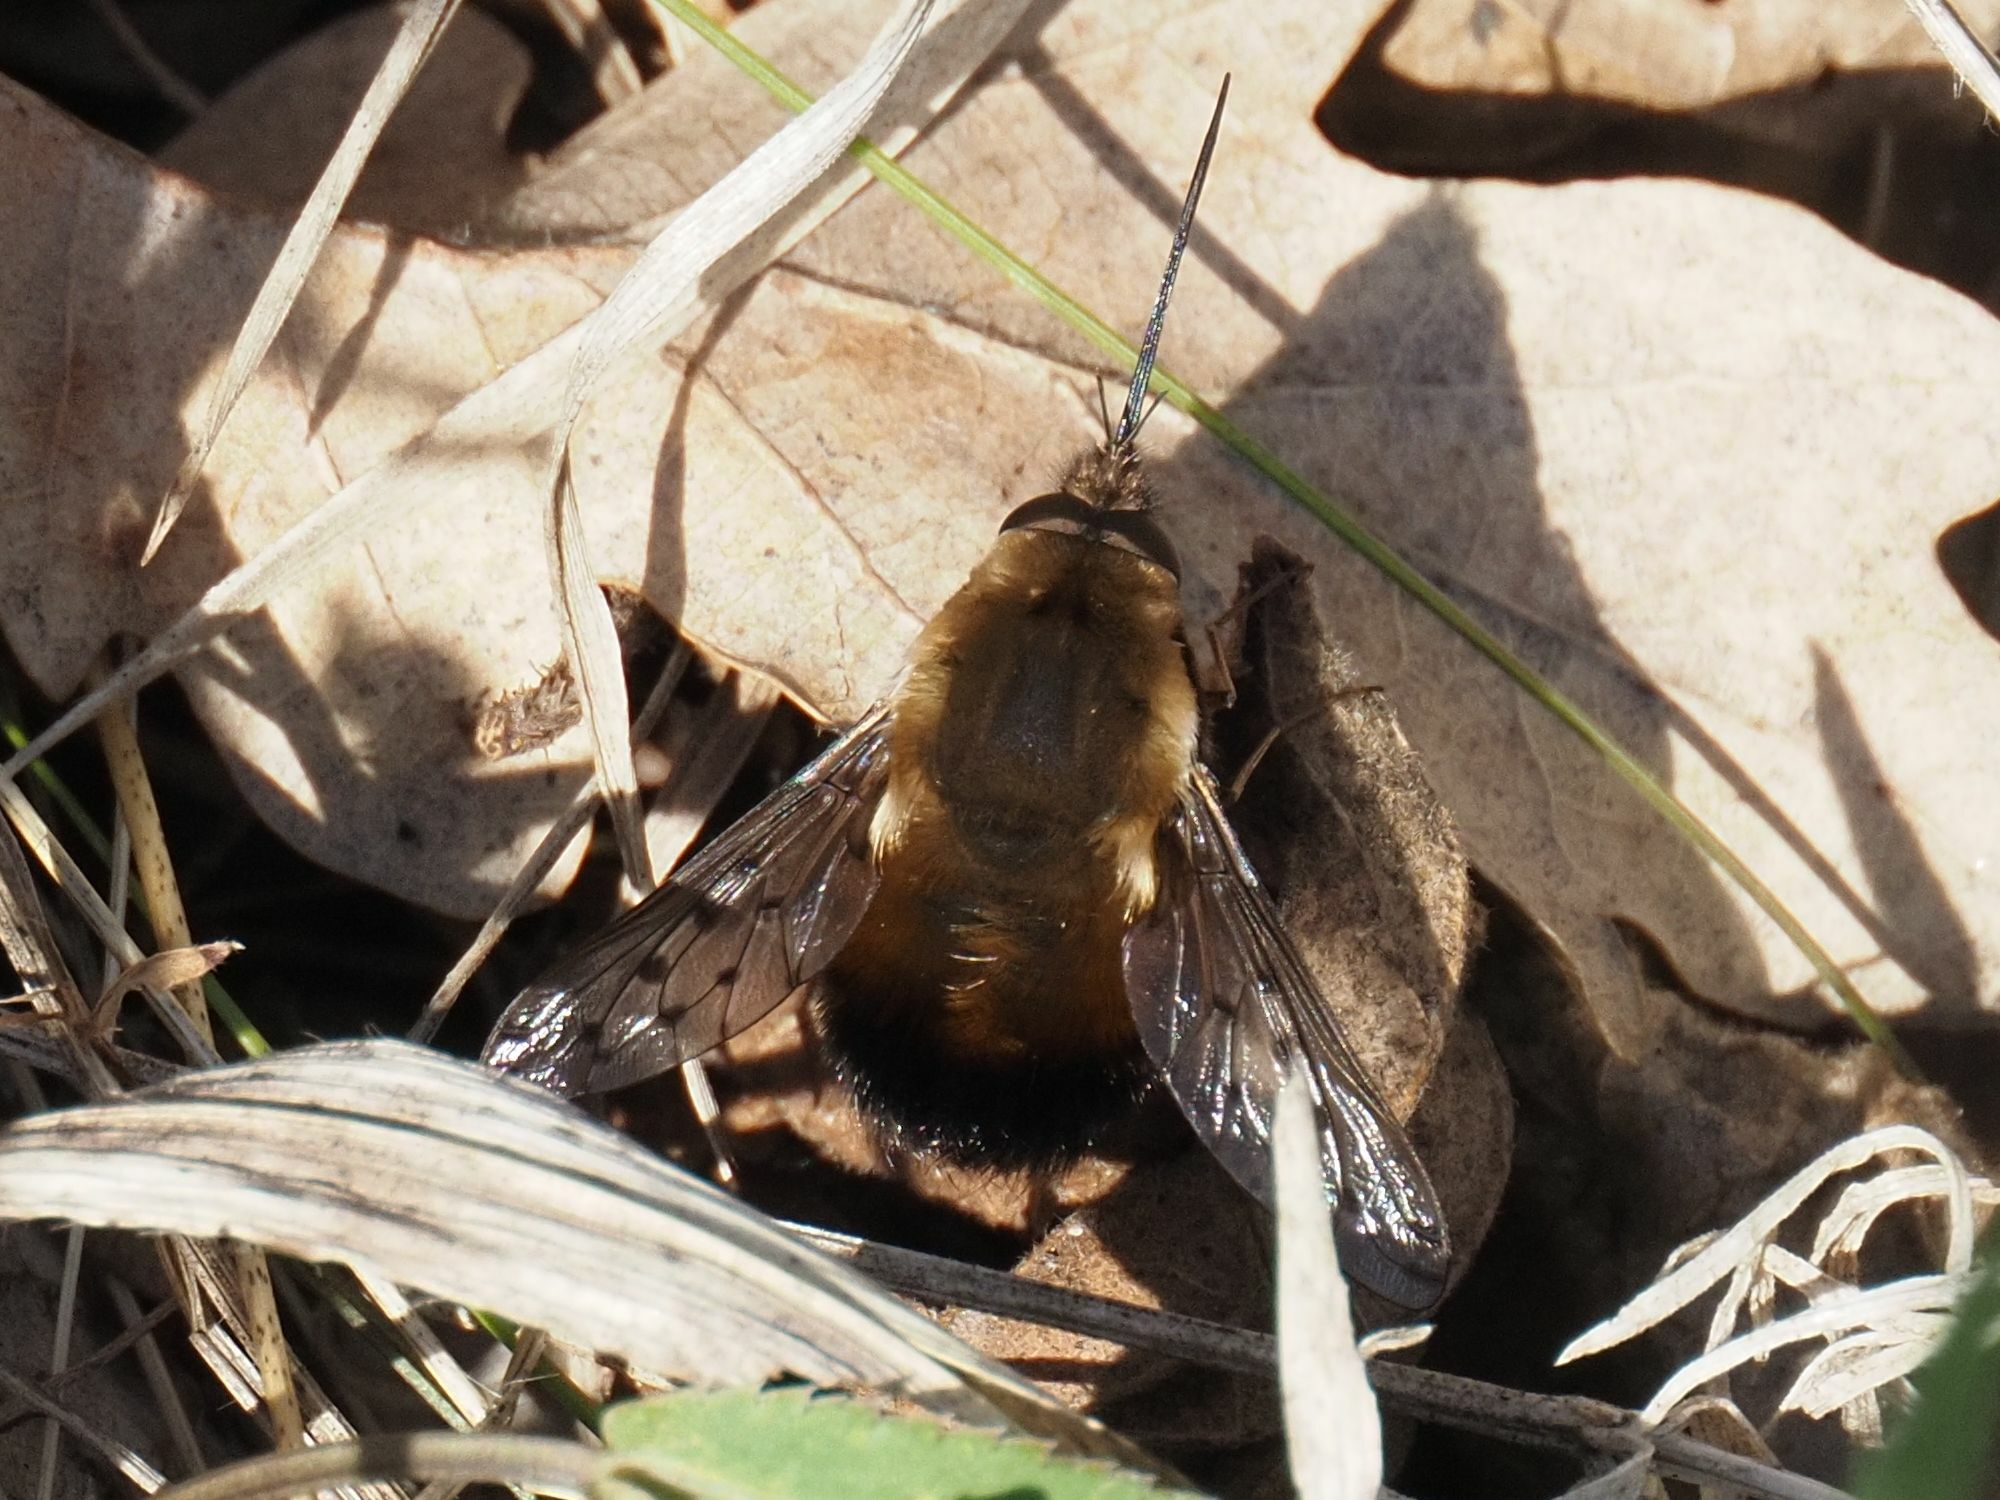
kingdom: Animalia
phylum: Arthropoda
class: Insecta
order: Diptera
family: Bombyliidae
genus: Bombylius
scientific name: Bombylius discolor
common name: Dotted bee-fly
